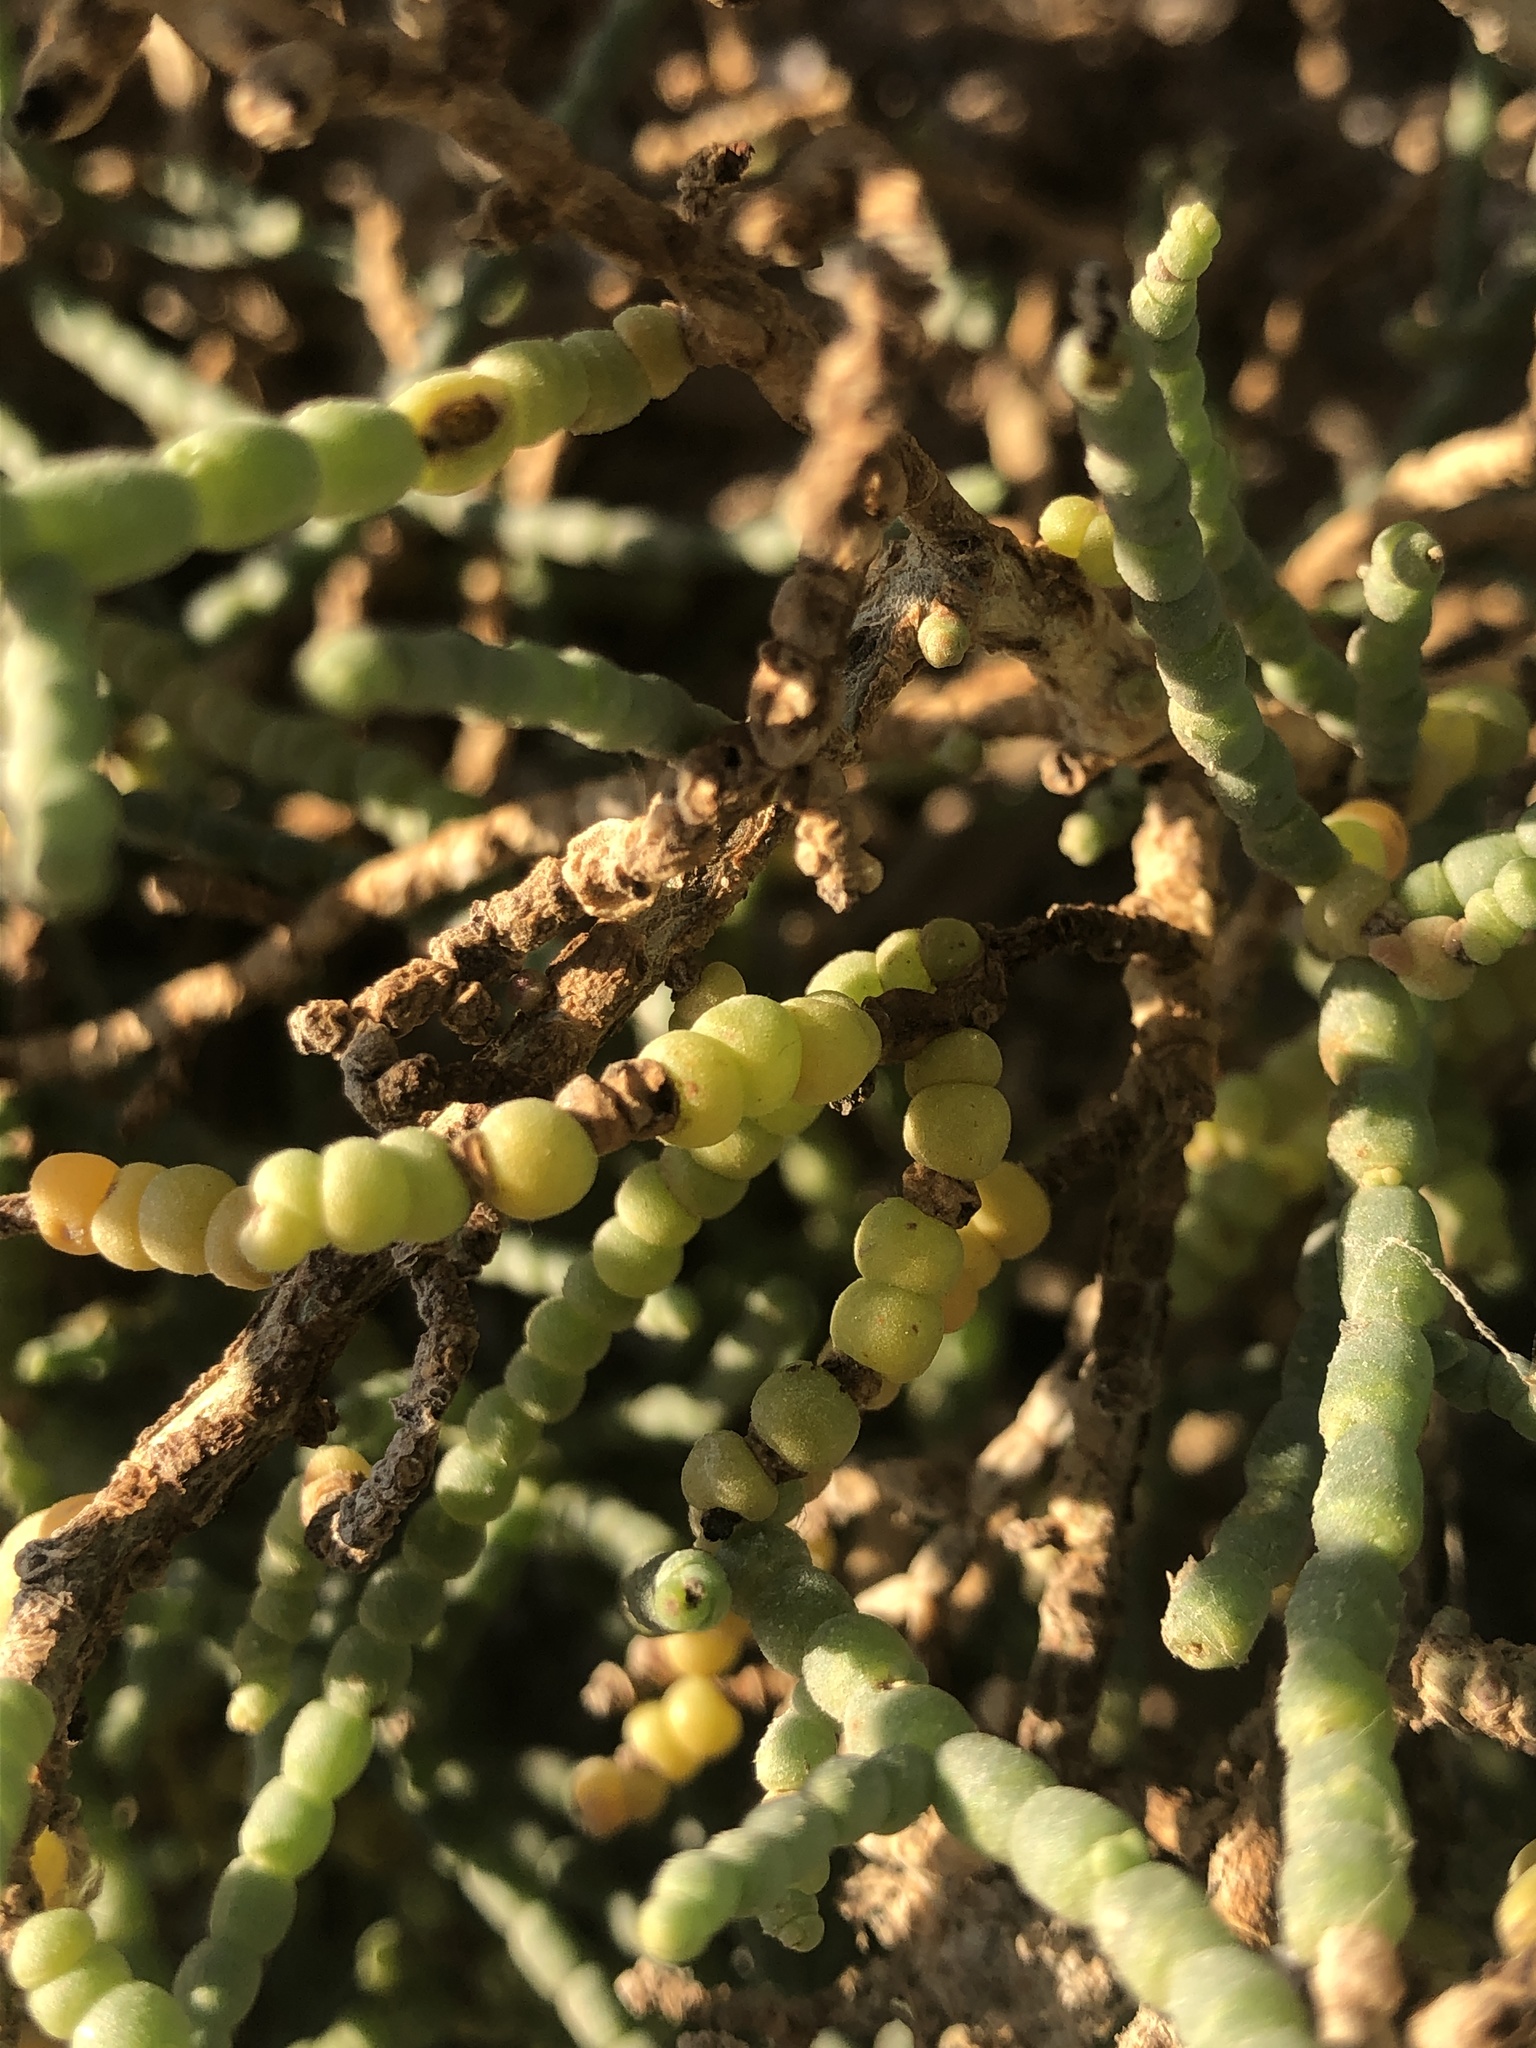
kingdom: Plantae
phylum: Tracheophyta
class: Magnoliopsida
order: Caryophyllales
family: Amaranthaceae
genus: Allenrolfea
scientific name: Allenrolfea occidentalis
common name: Iodine-bush
